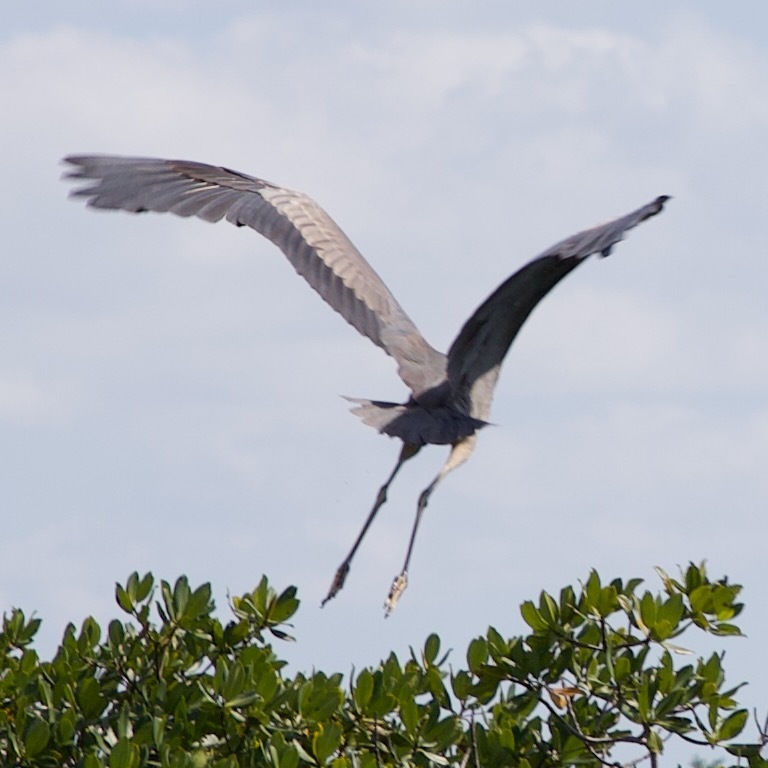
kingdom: Animalia
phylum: Chordata
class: Aves
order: Pelecaniformes
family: Ardeidae
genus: Ardea
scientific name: Ardea herodias
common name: Great blue heron
